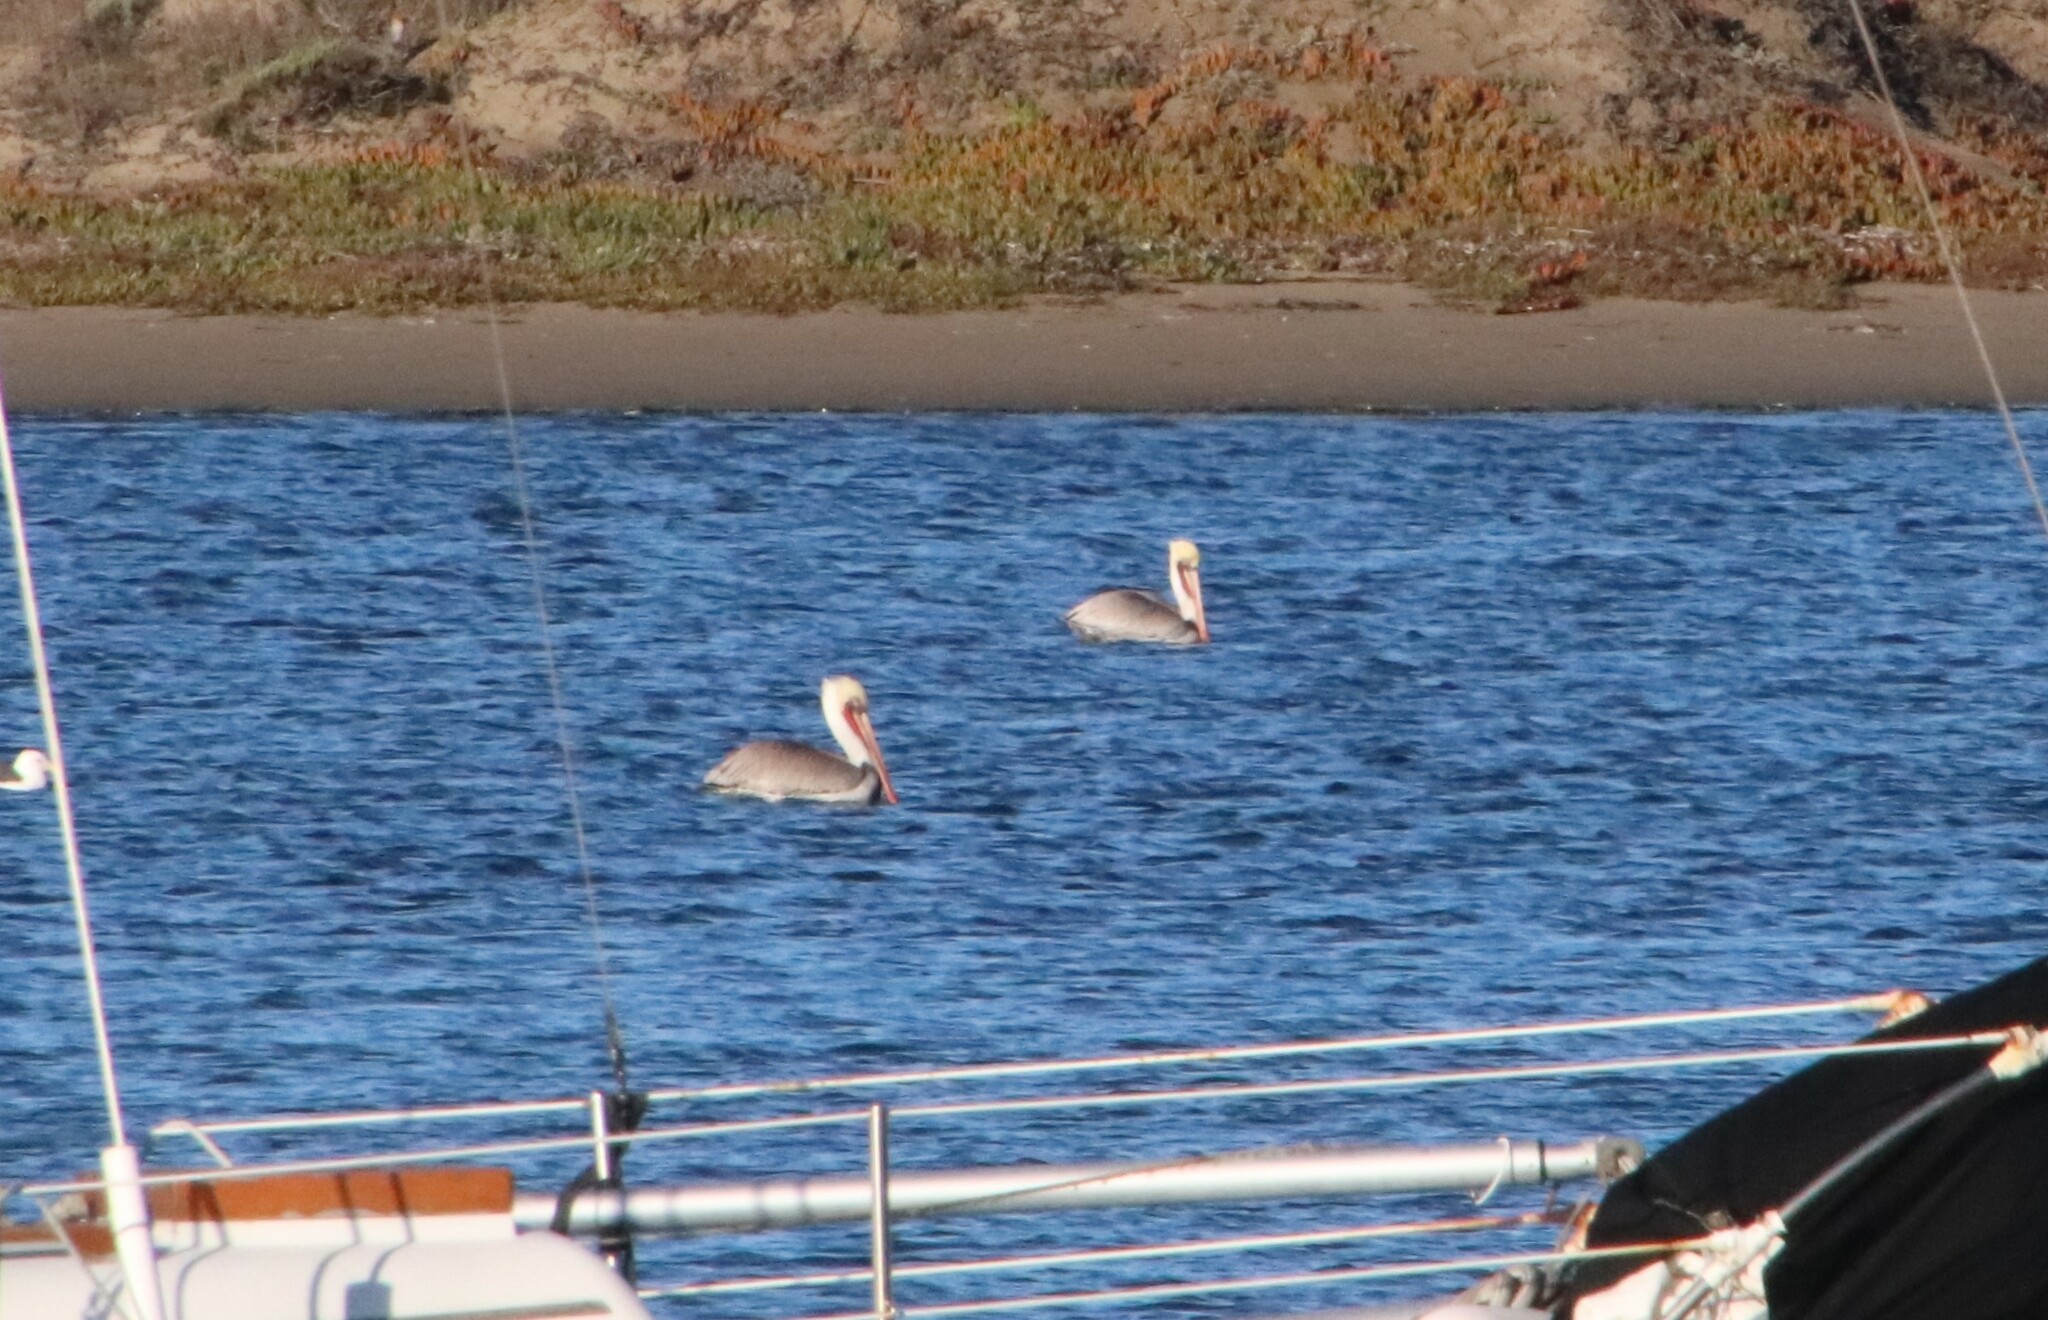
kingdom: Animalia
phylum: Chordata
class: Aves
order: Pelecaniformes
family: Pelecanidae
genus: Pelecanus
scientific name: Pelecanus occidentalis
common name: Brown pelican
